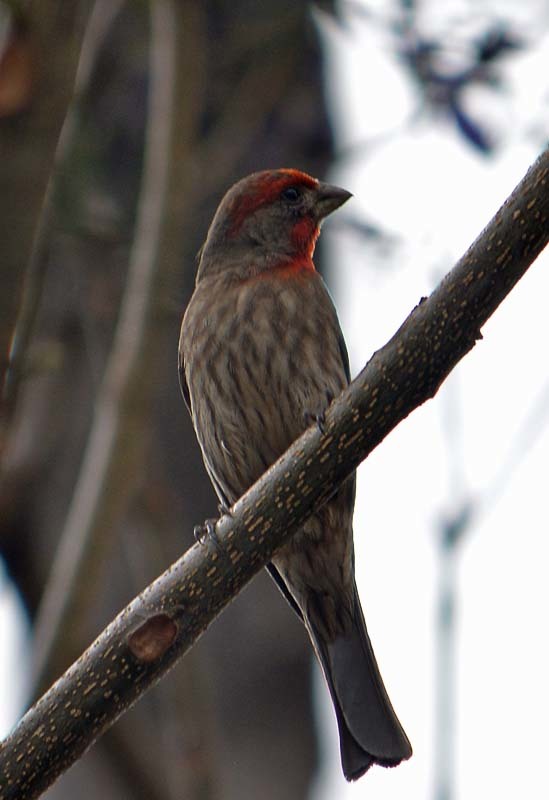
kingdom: Animalia
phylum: Chordata
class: Aves
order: Passeriformes
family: Fringillidae
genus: Haemorhous
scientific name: Haemorhous mexicanus
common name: House finch
